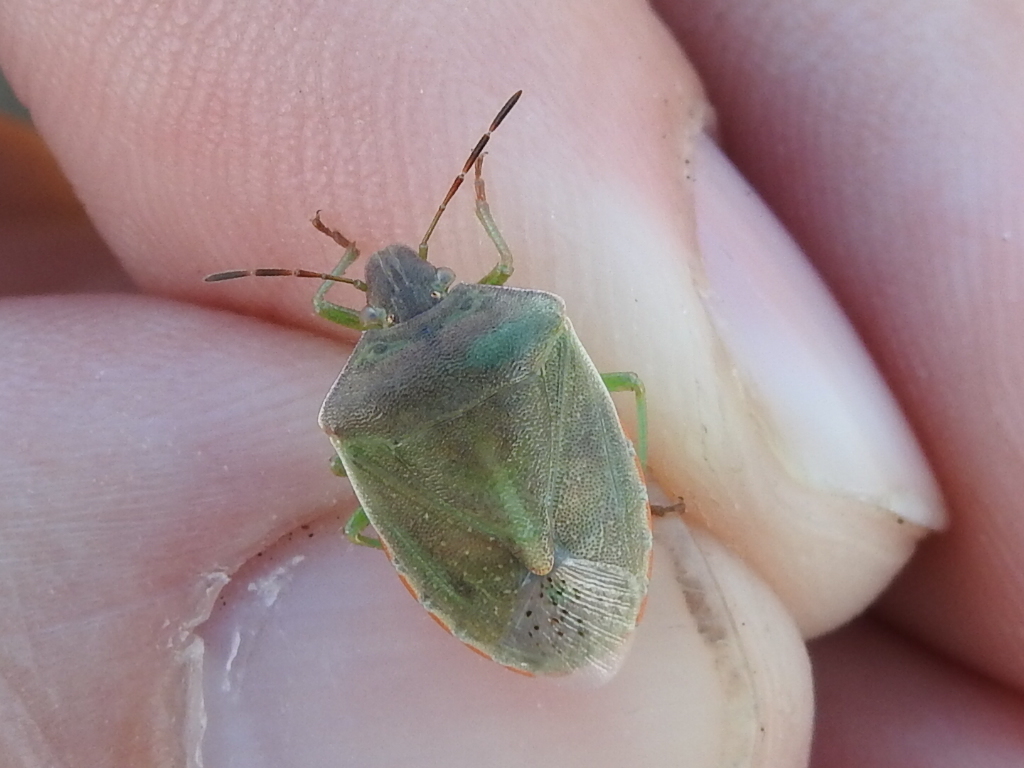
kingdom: Animalia
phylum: Arthropoda
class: Insecta
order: Hemiptera
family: Pentatomidae
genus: Thyanta
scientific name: Thyanta accerra
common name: Stink bug
